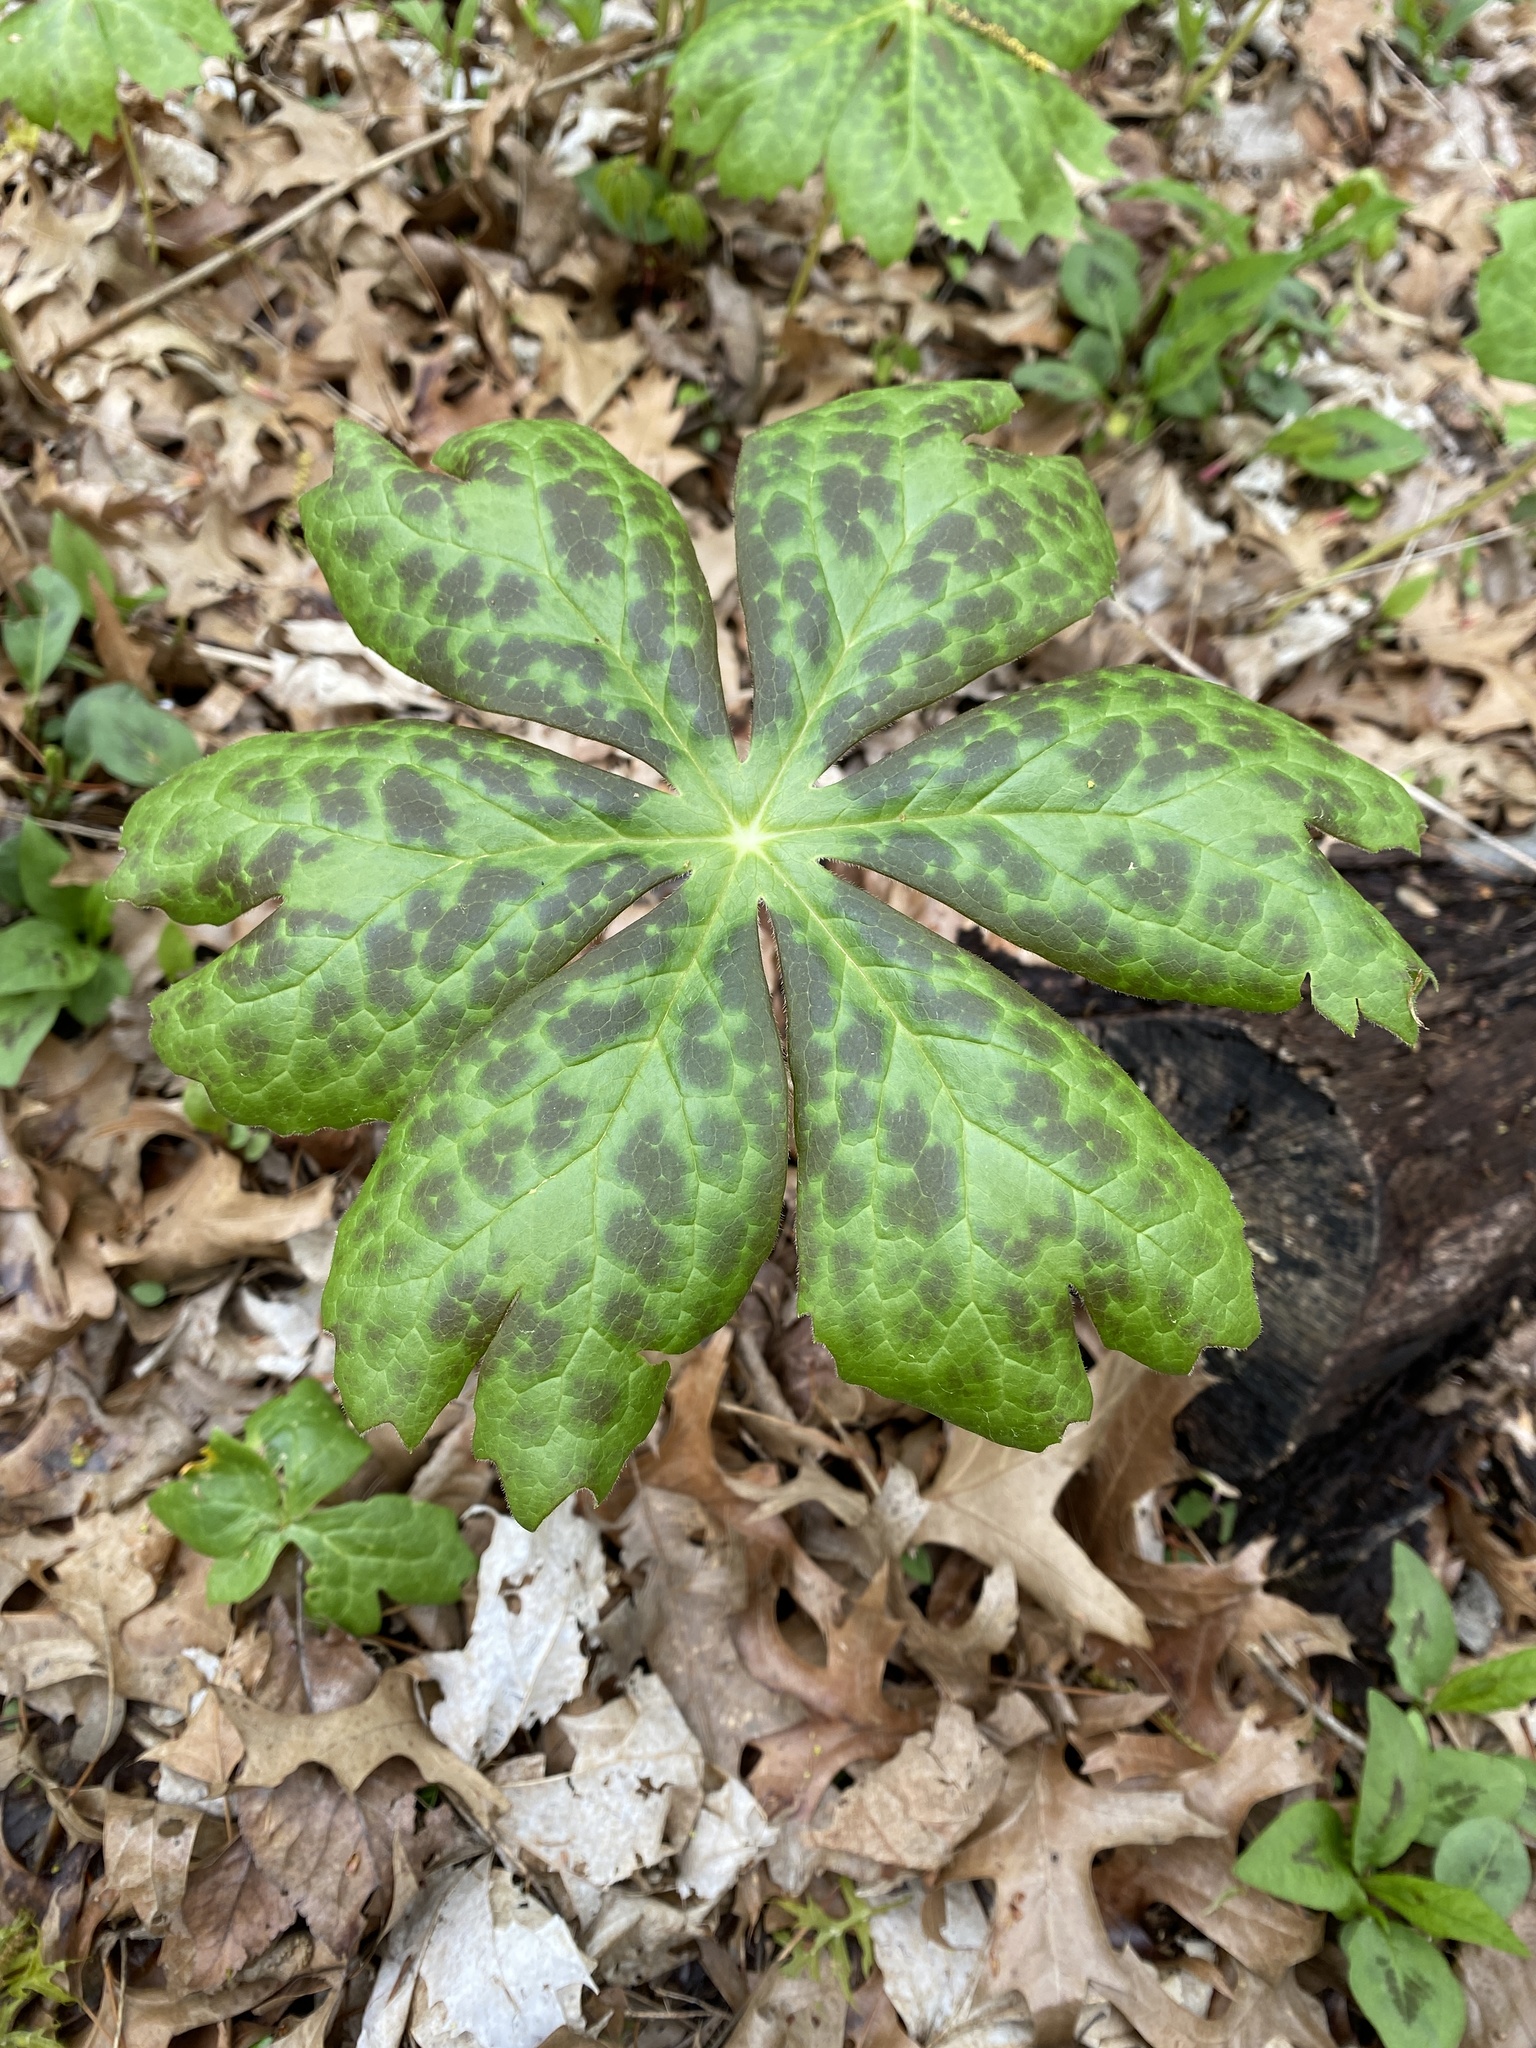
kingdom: Plantae
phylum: Tracheophyta
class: Magnoliopsida
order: Ranunculales
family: Berberidaceae
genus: Podophyllum
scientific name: Podophyllum peltatum
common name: Wild mandrake
